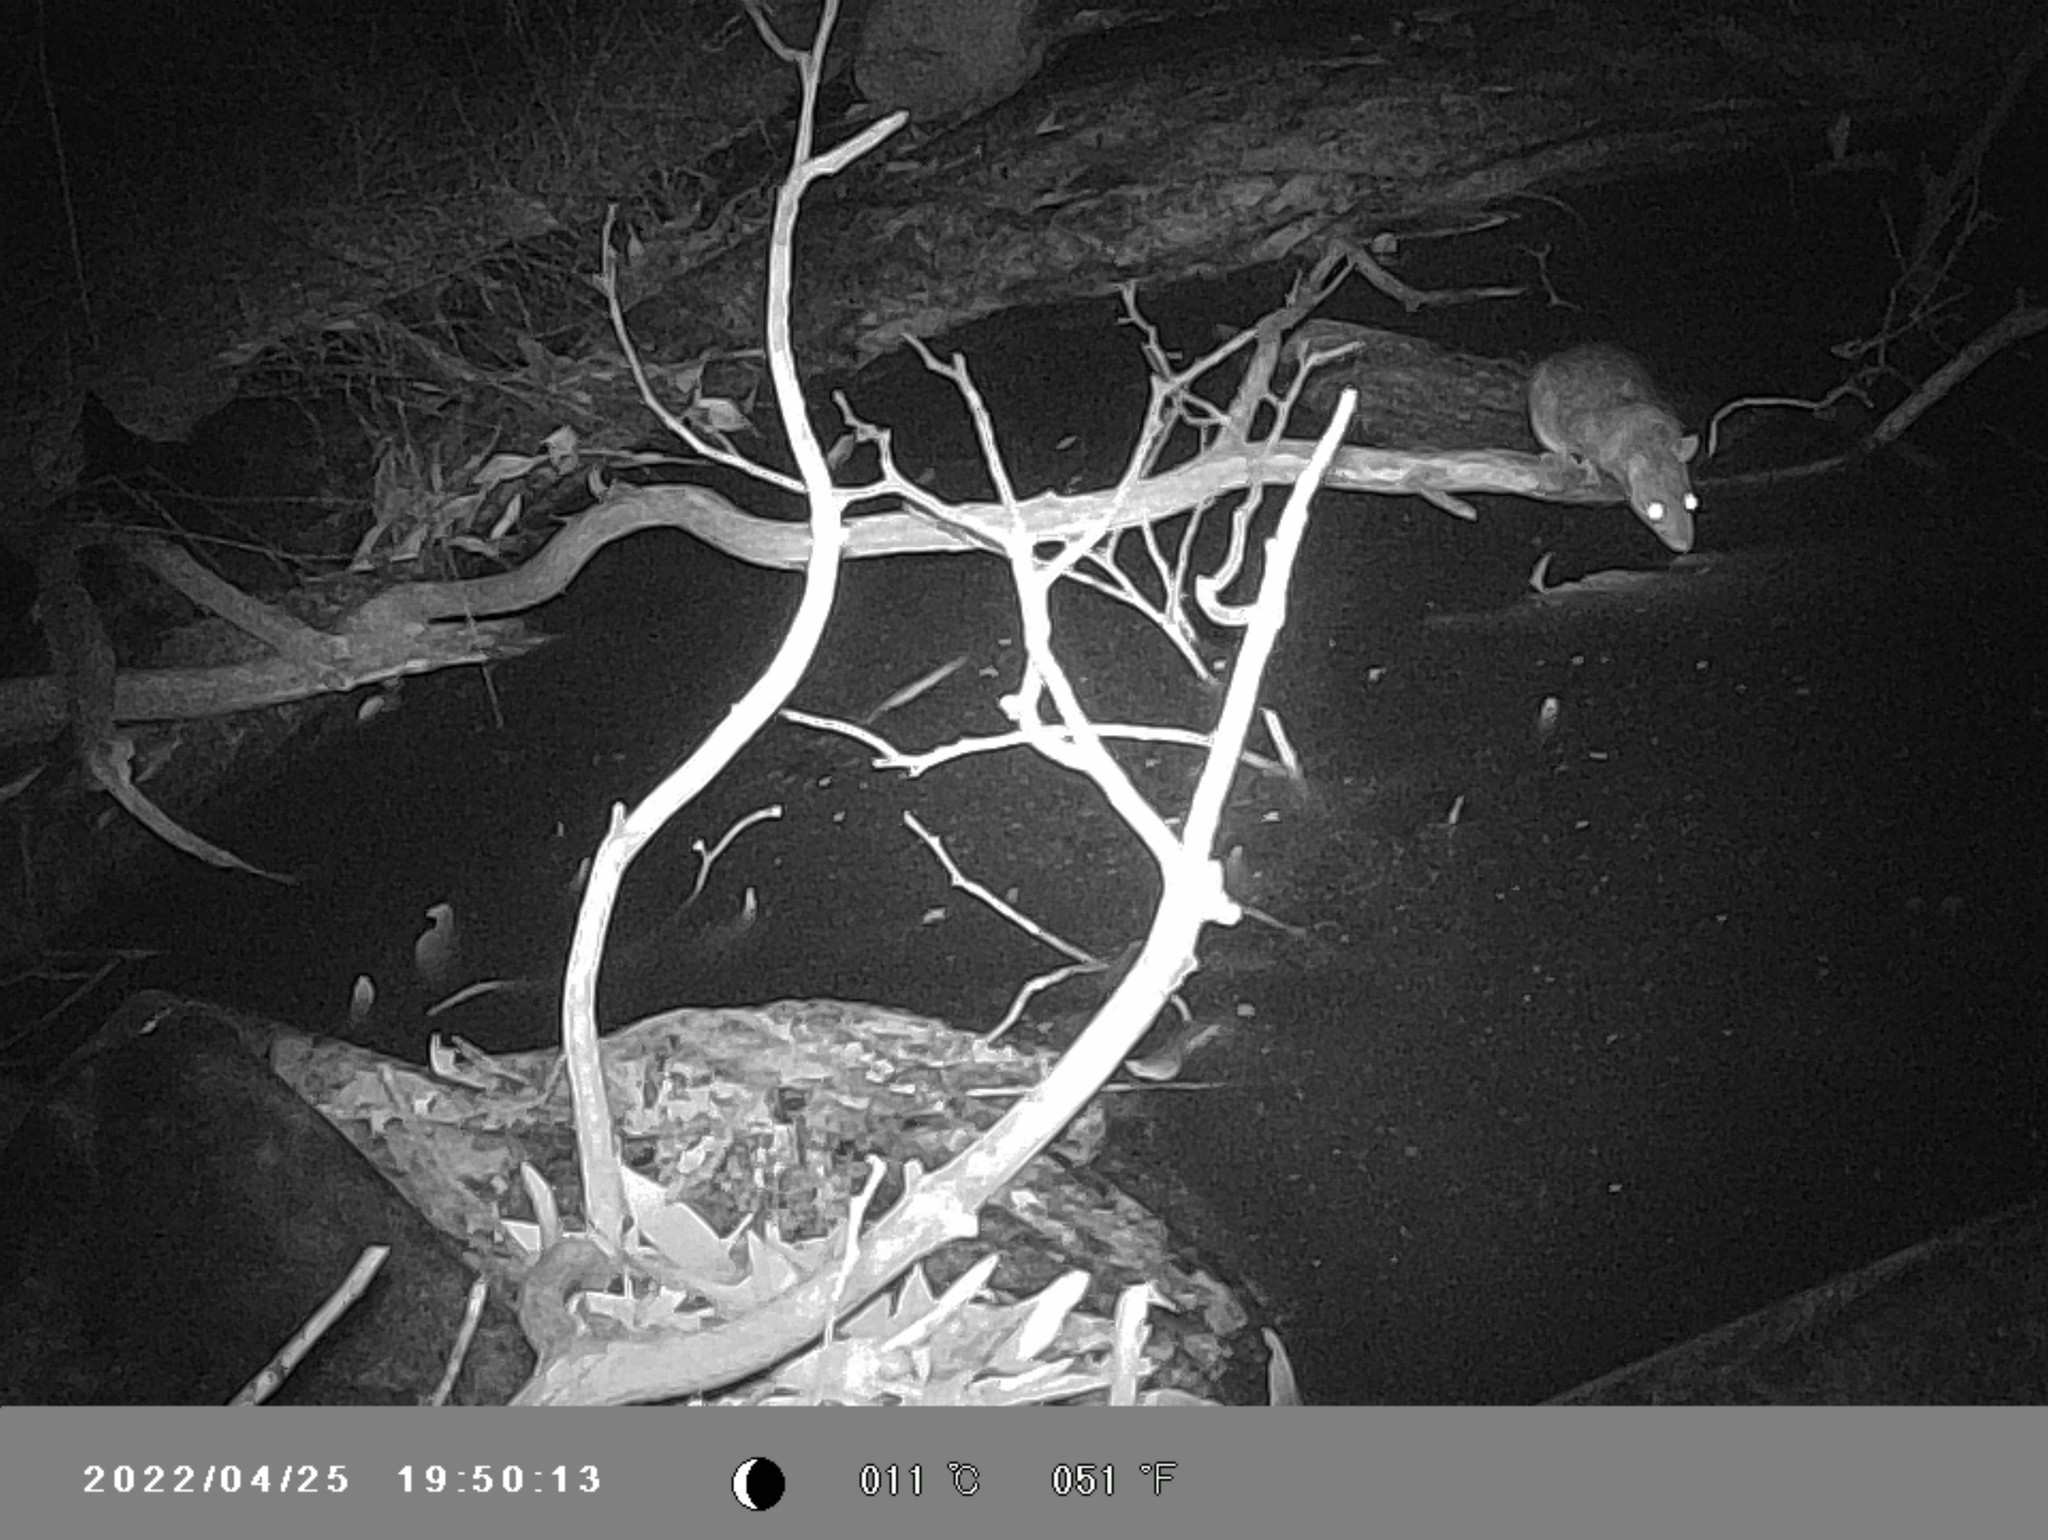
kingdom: Animalia
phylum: Chordata
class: Mammalia
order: Rodentia
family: Muridae
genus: Rattus
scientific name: Rattus rattus
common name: Black rat
